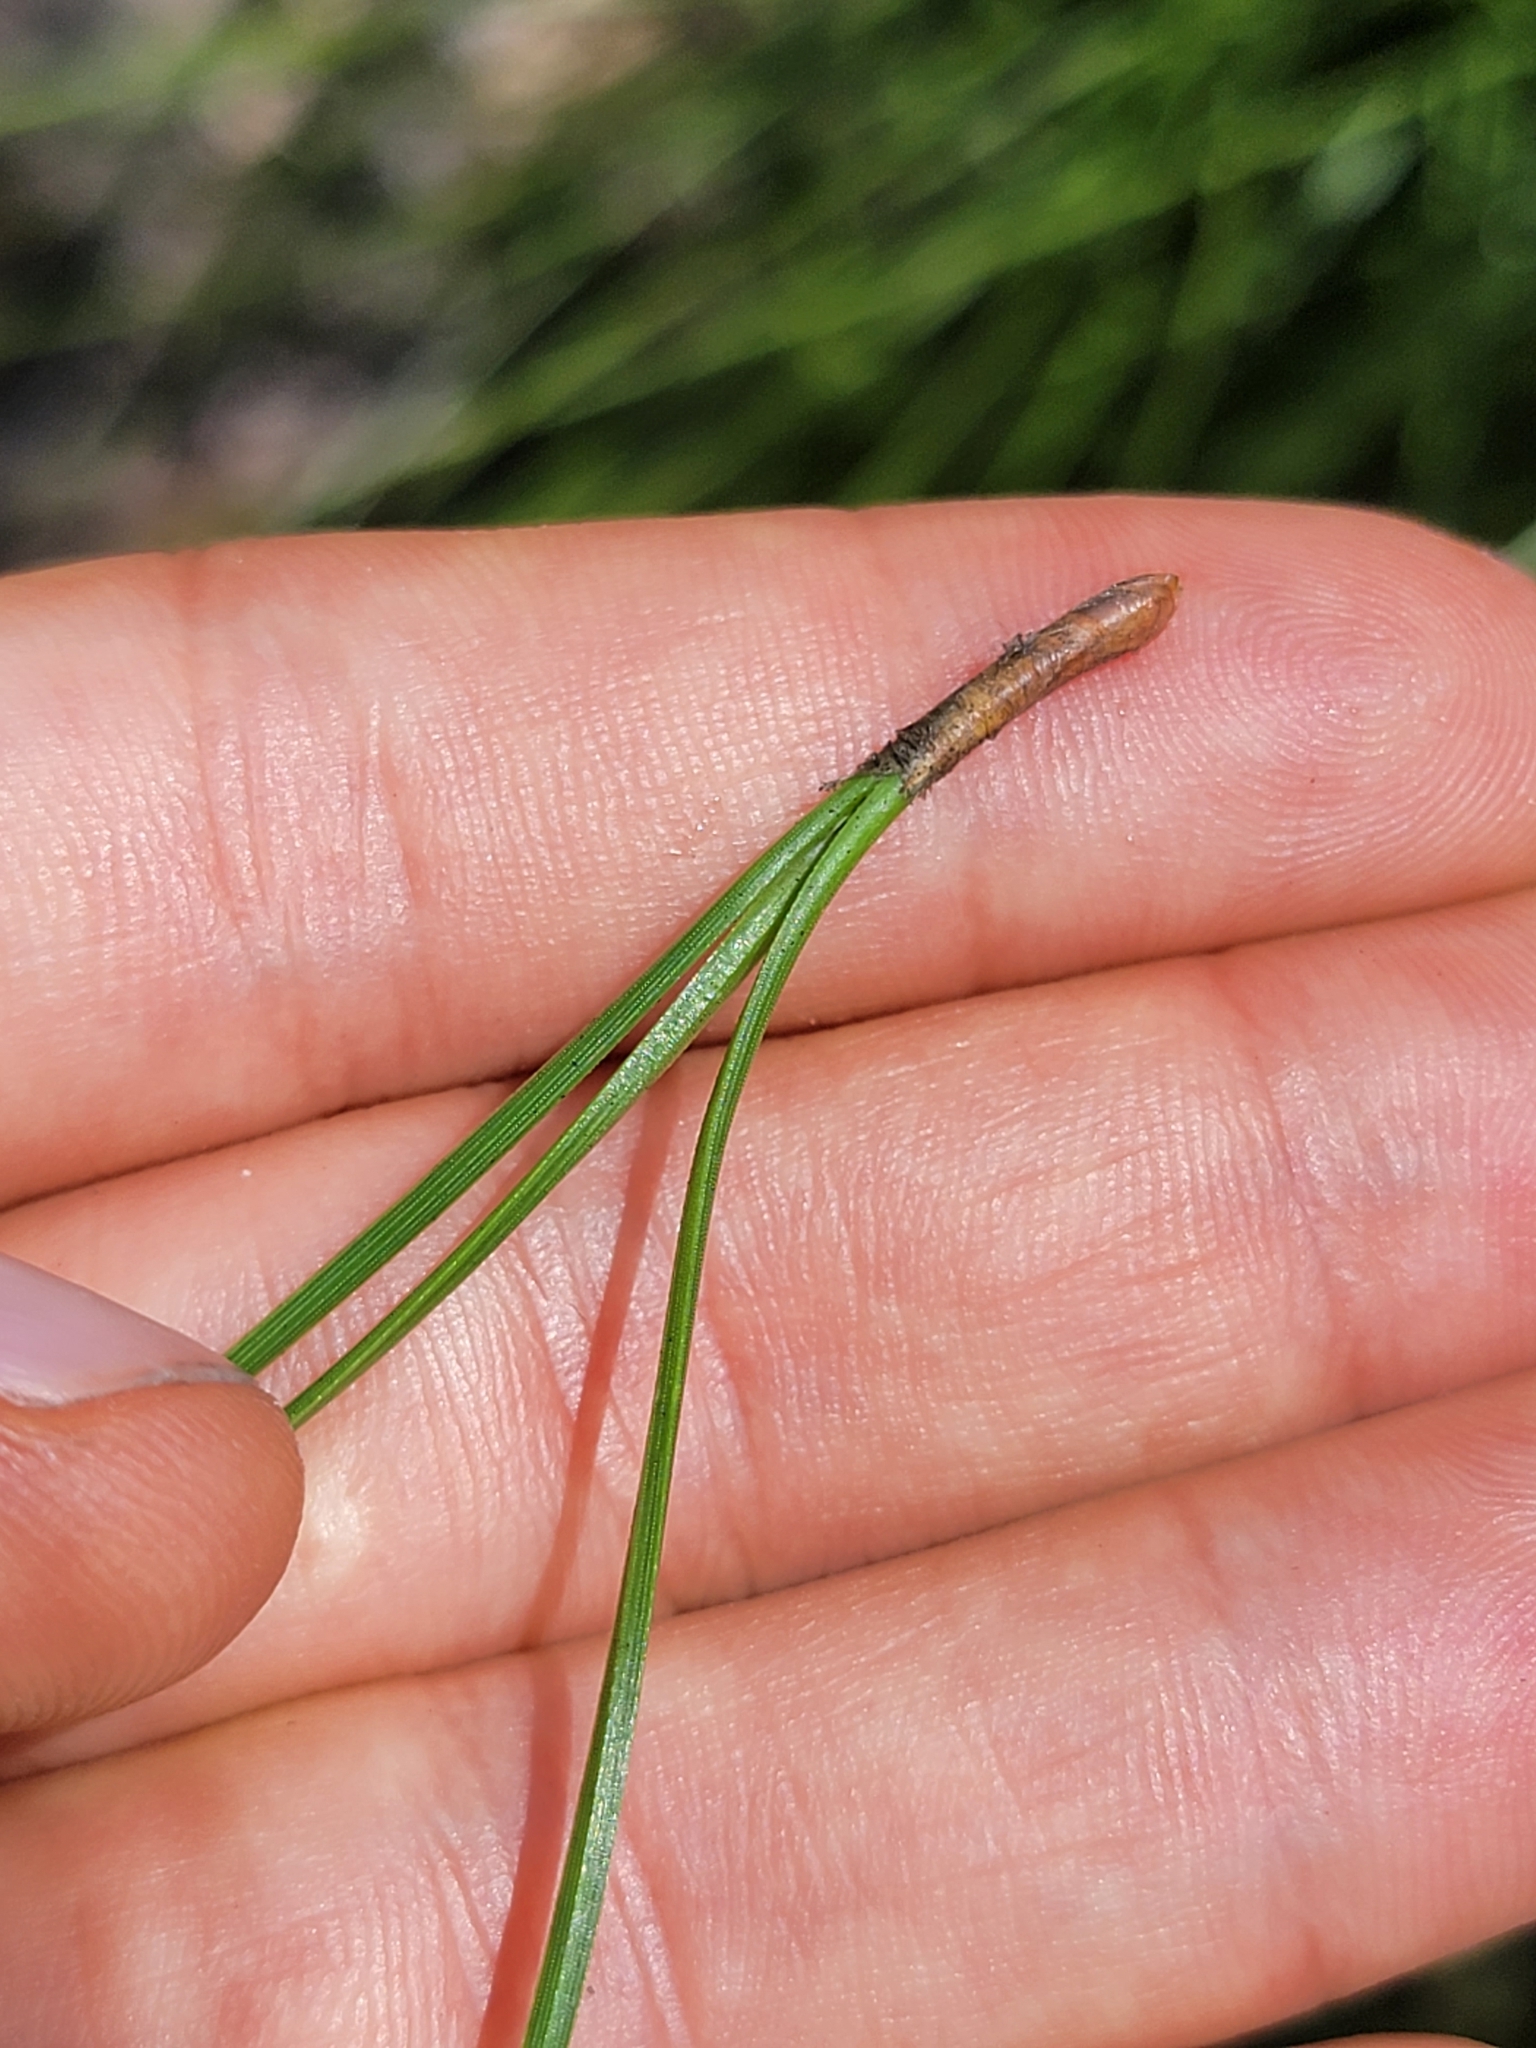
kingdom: Plantae
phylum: Tracheophyta
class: Pinopsida
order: Pinales
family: Pinaceae
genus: Pinus
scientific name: Pinus elliottii
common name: Slash pine
